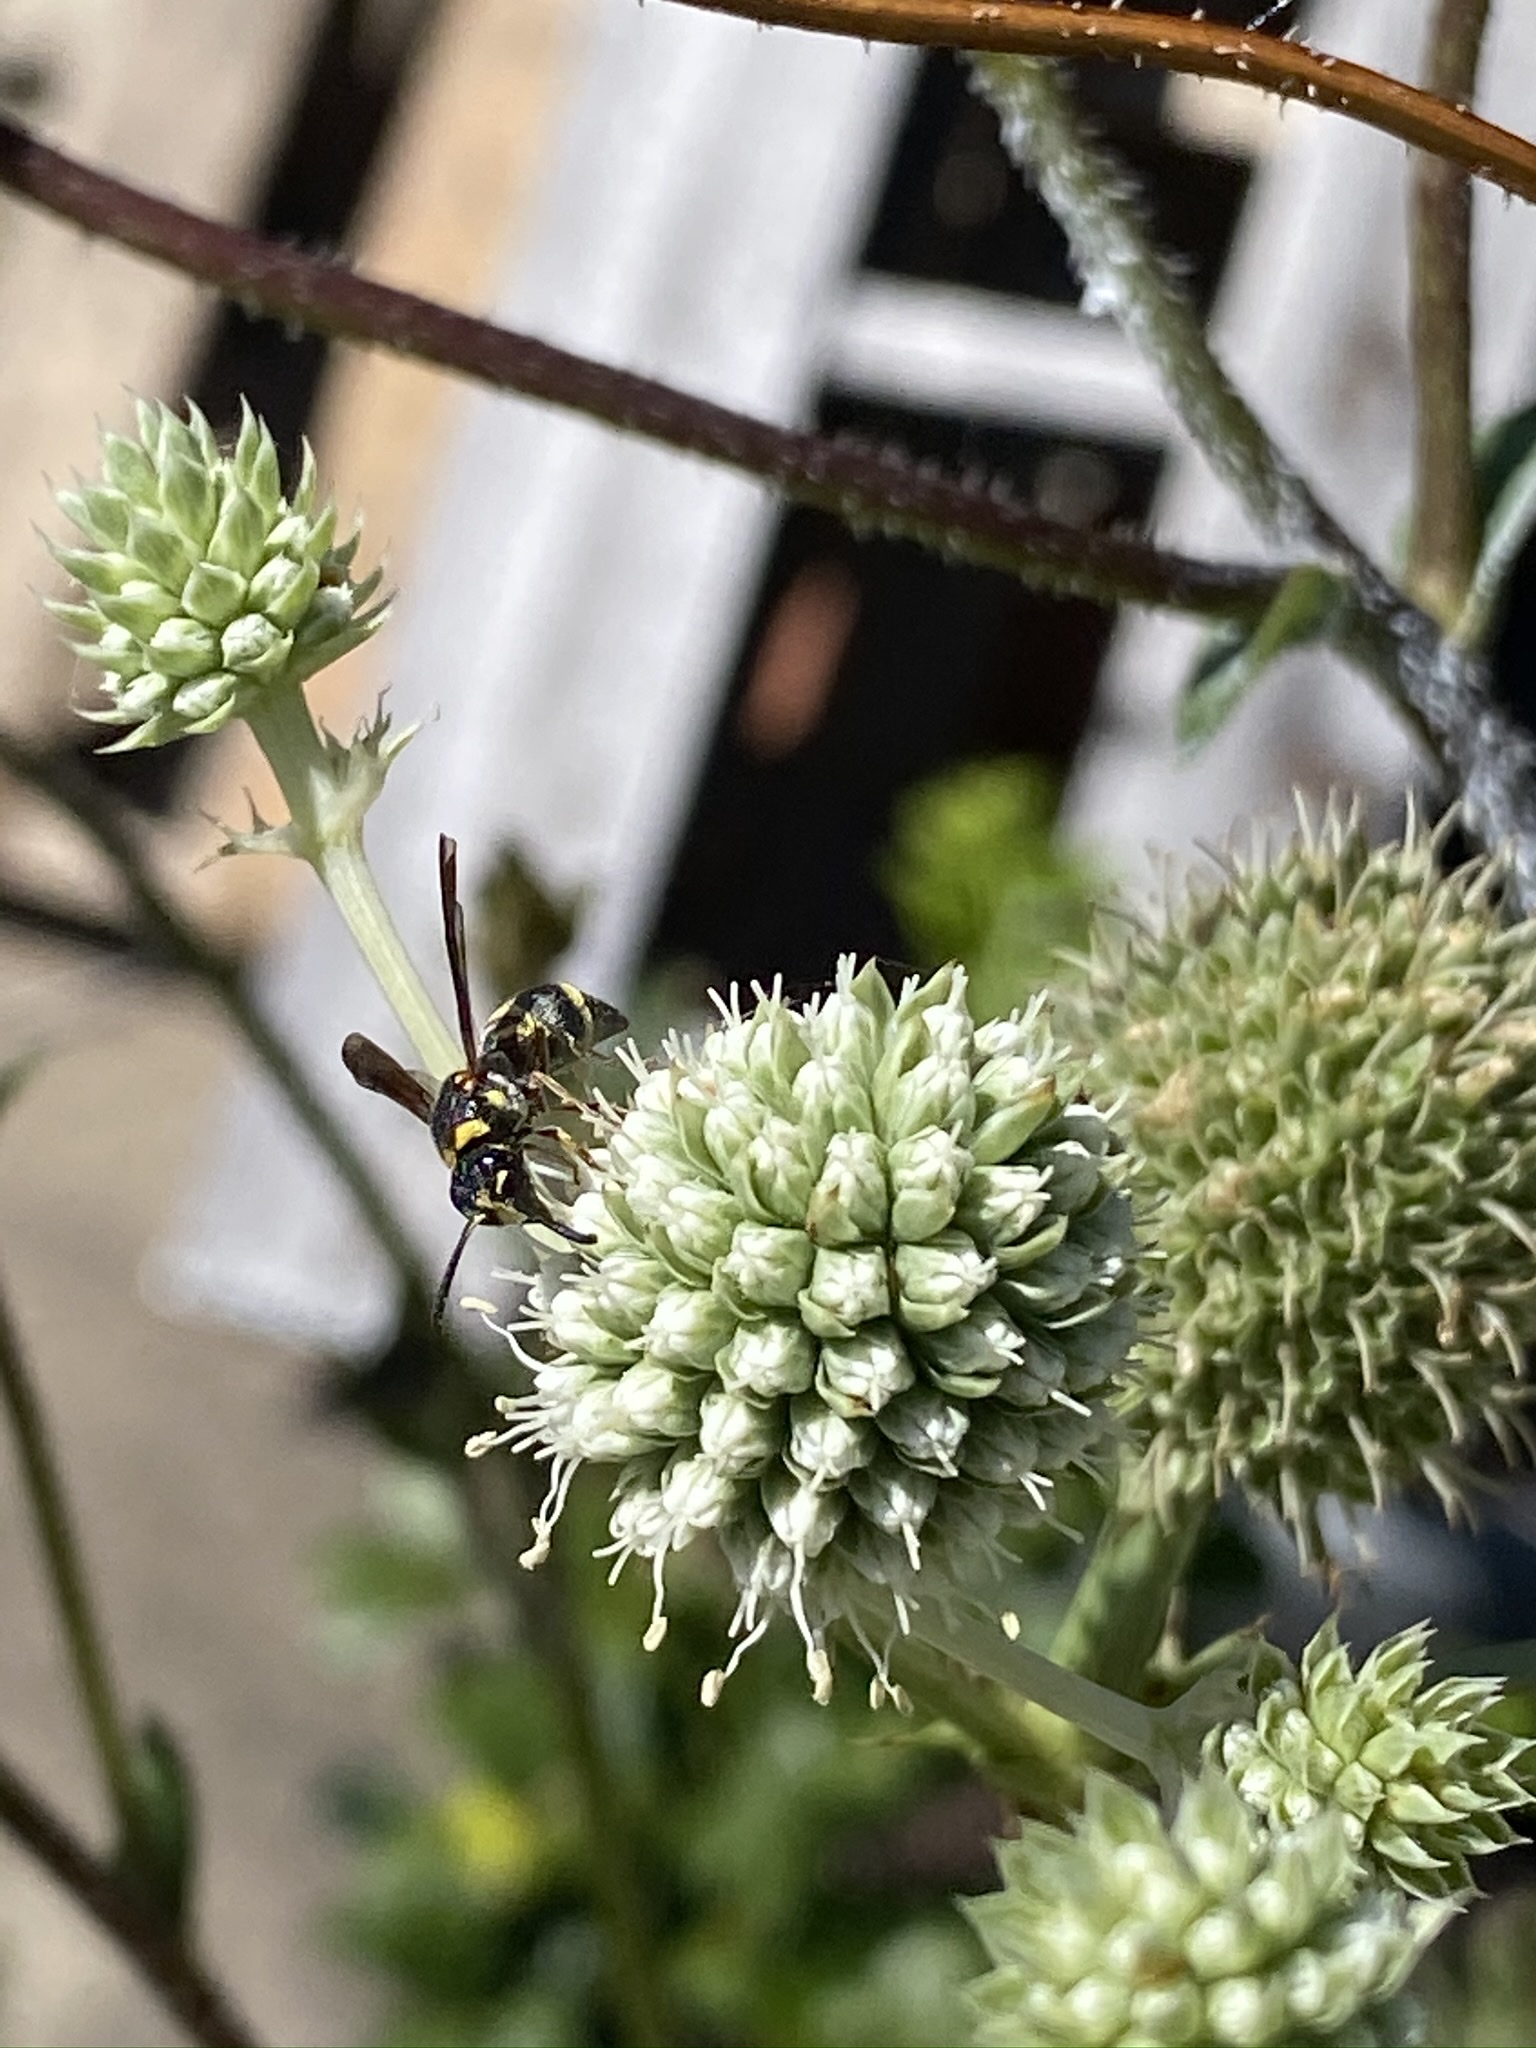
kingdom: Animalia
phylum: Arthropoda
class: Insecta
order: Hymenoptera
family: Eumenidae
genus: Parancistrocerus
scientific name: Parancistrocerus fulvipes
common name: Potter wasp
